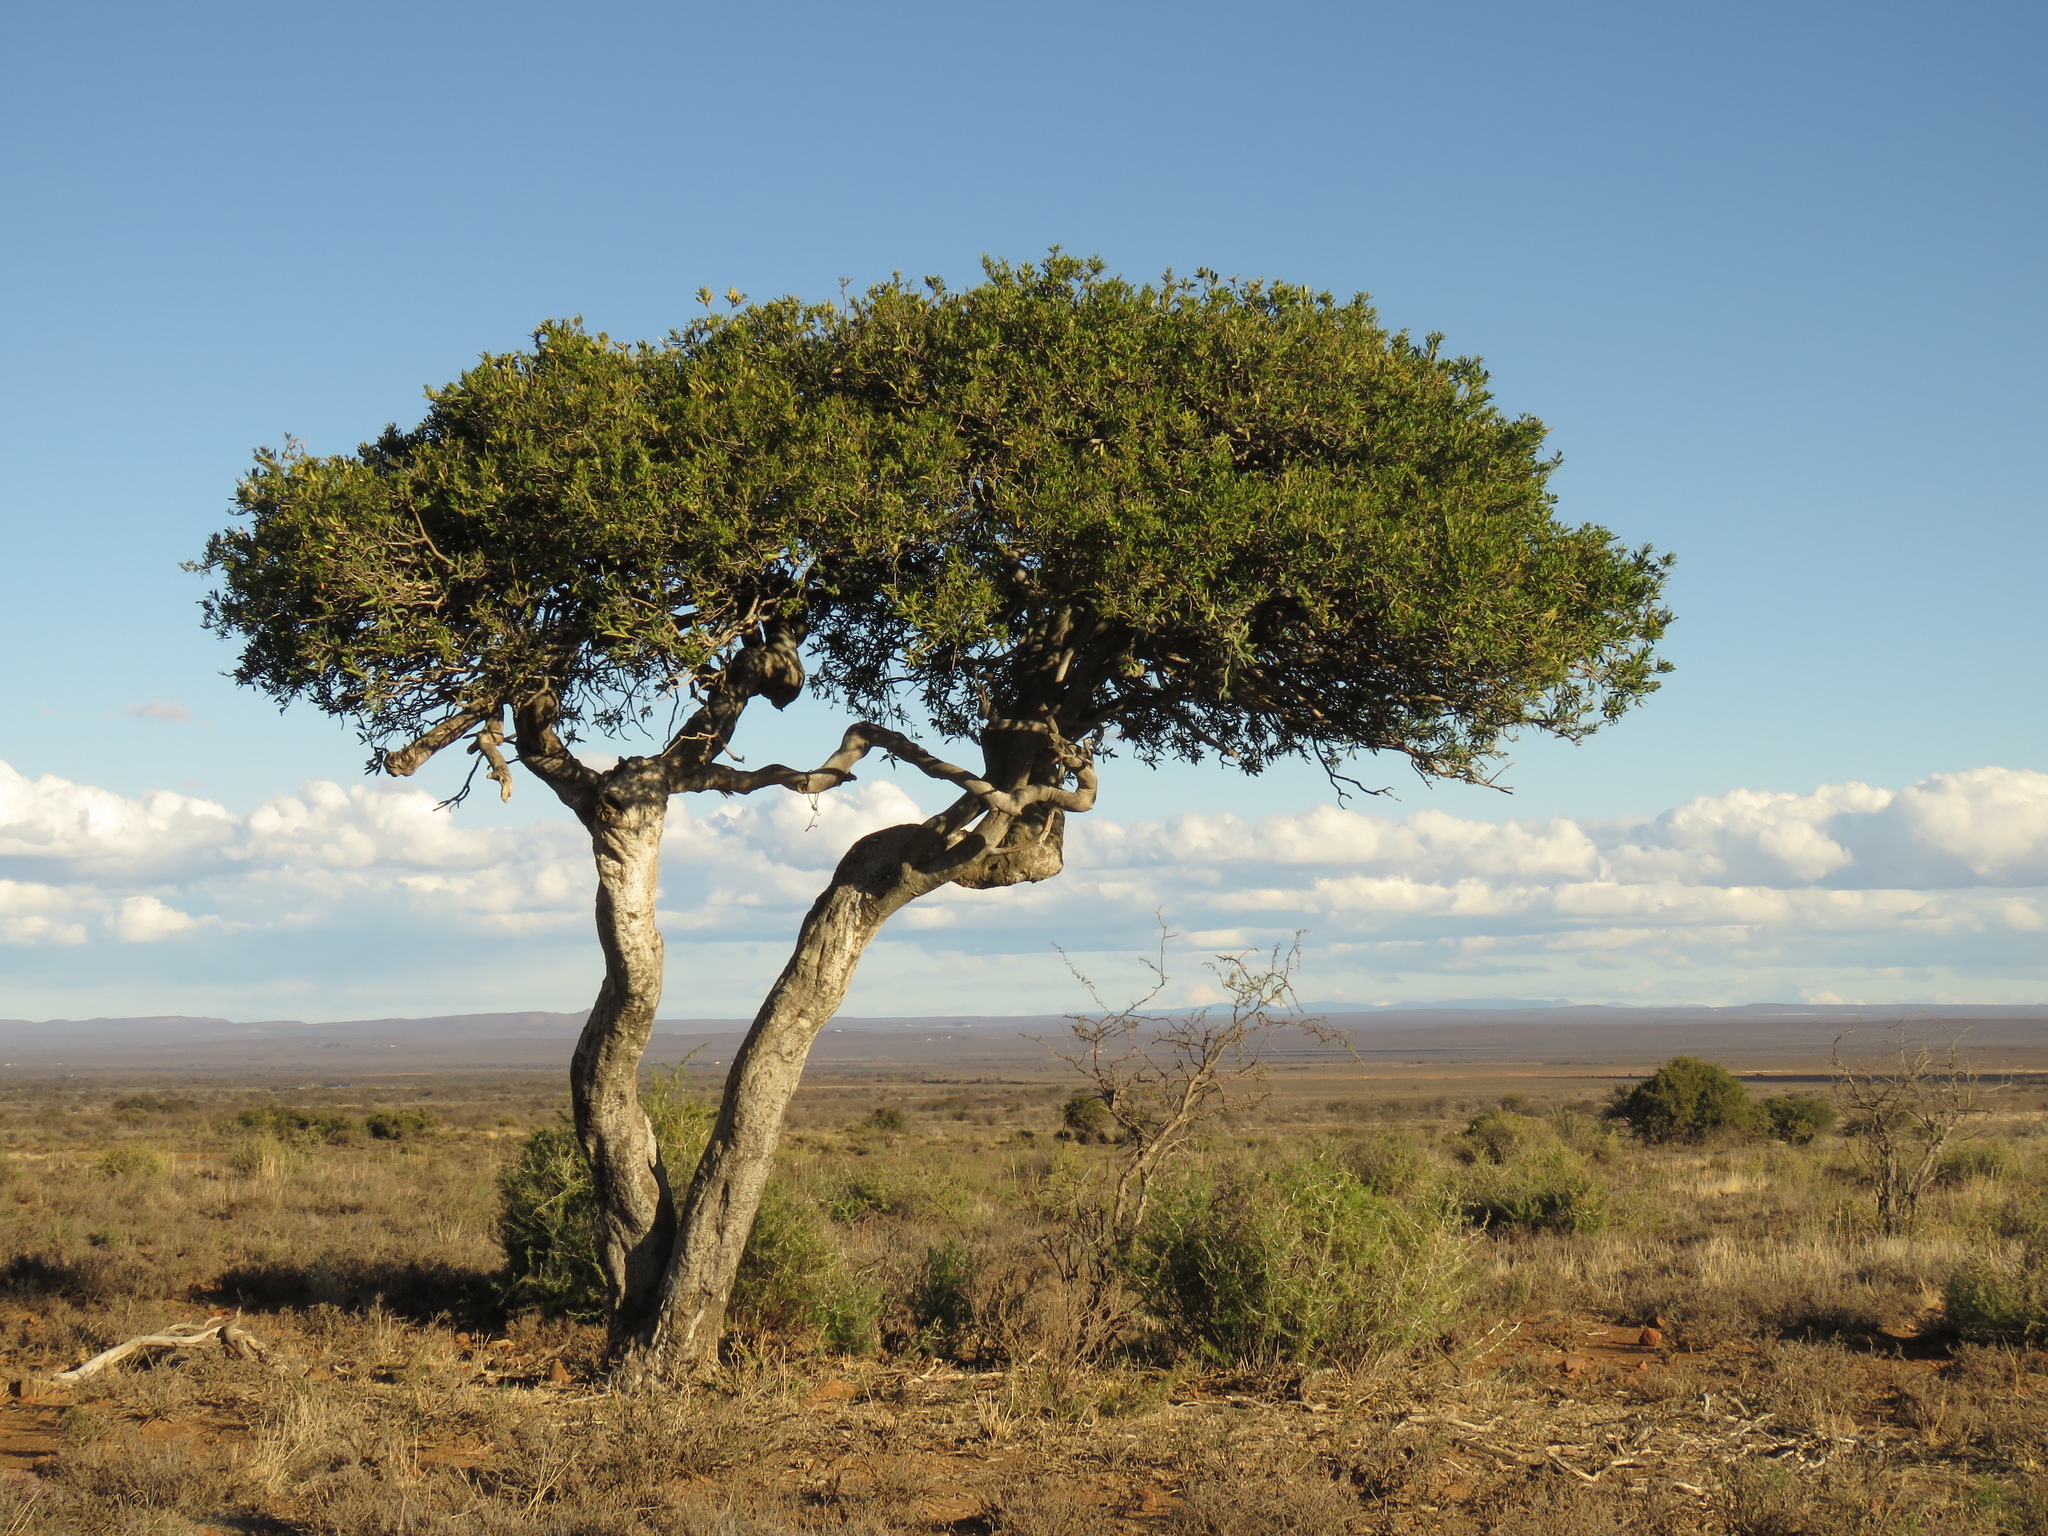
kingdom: Plantae
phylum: Tracheophyta
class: Magnoliopsida
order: Brassicales
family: Capparaceae
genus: Boscia
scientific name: Boscia oleoides
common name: Karoo shepherd tree
